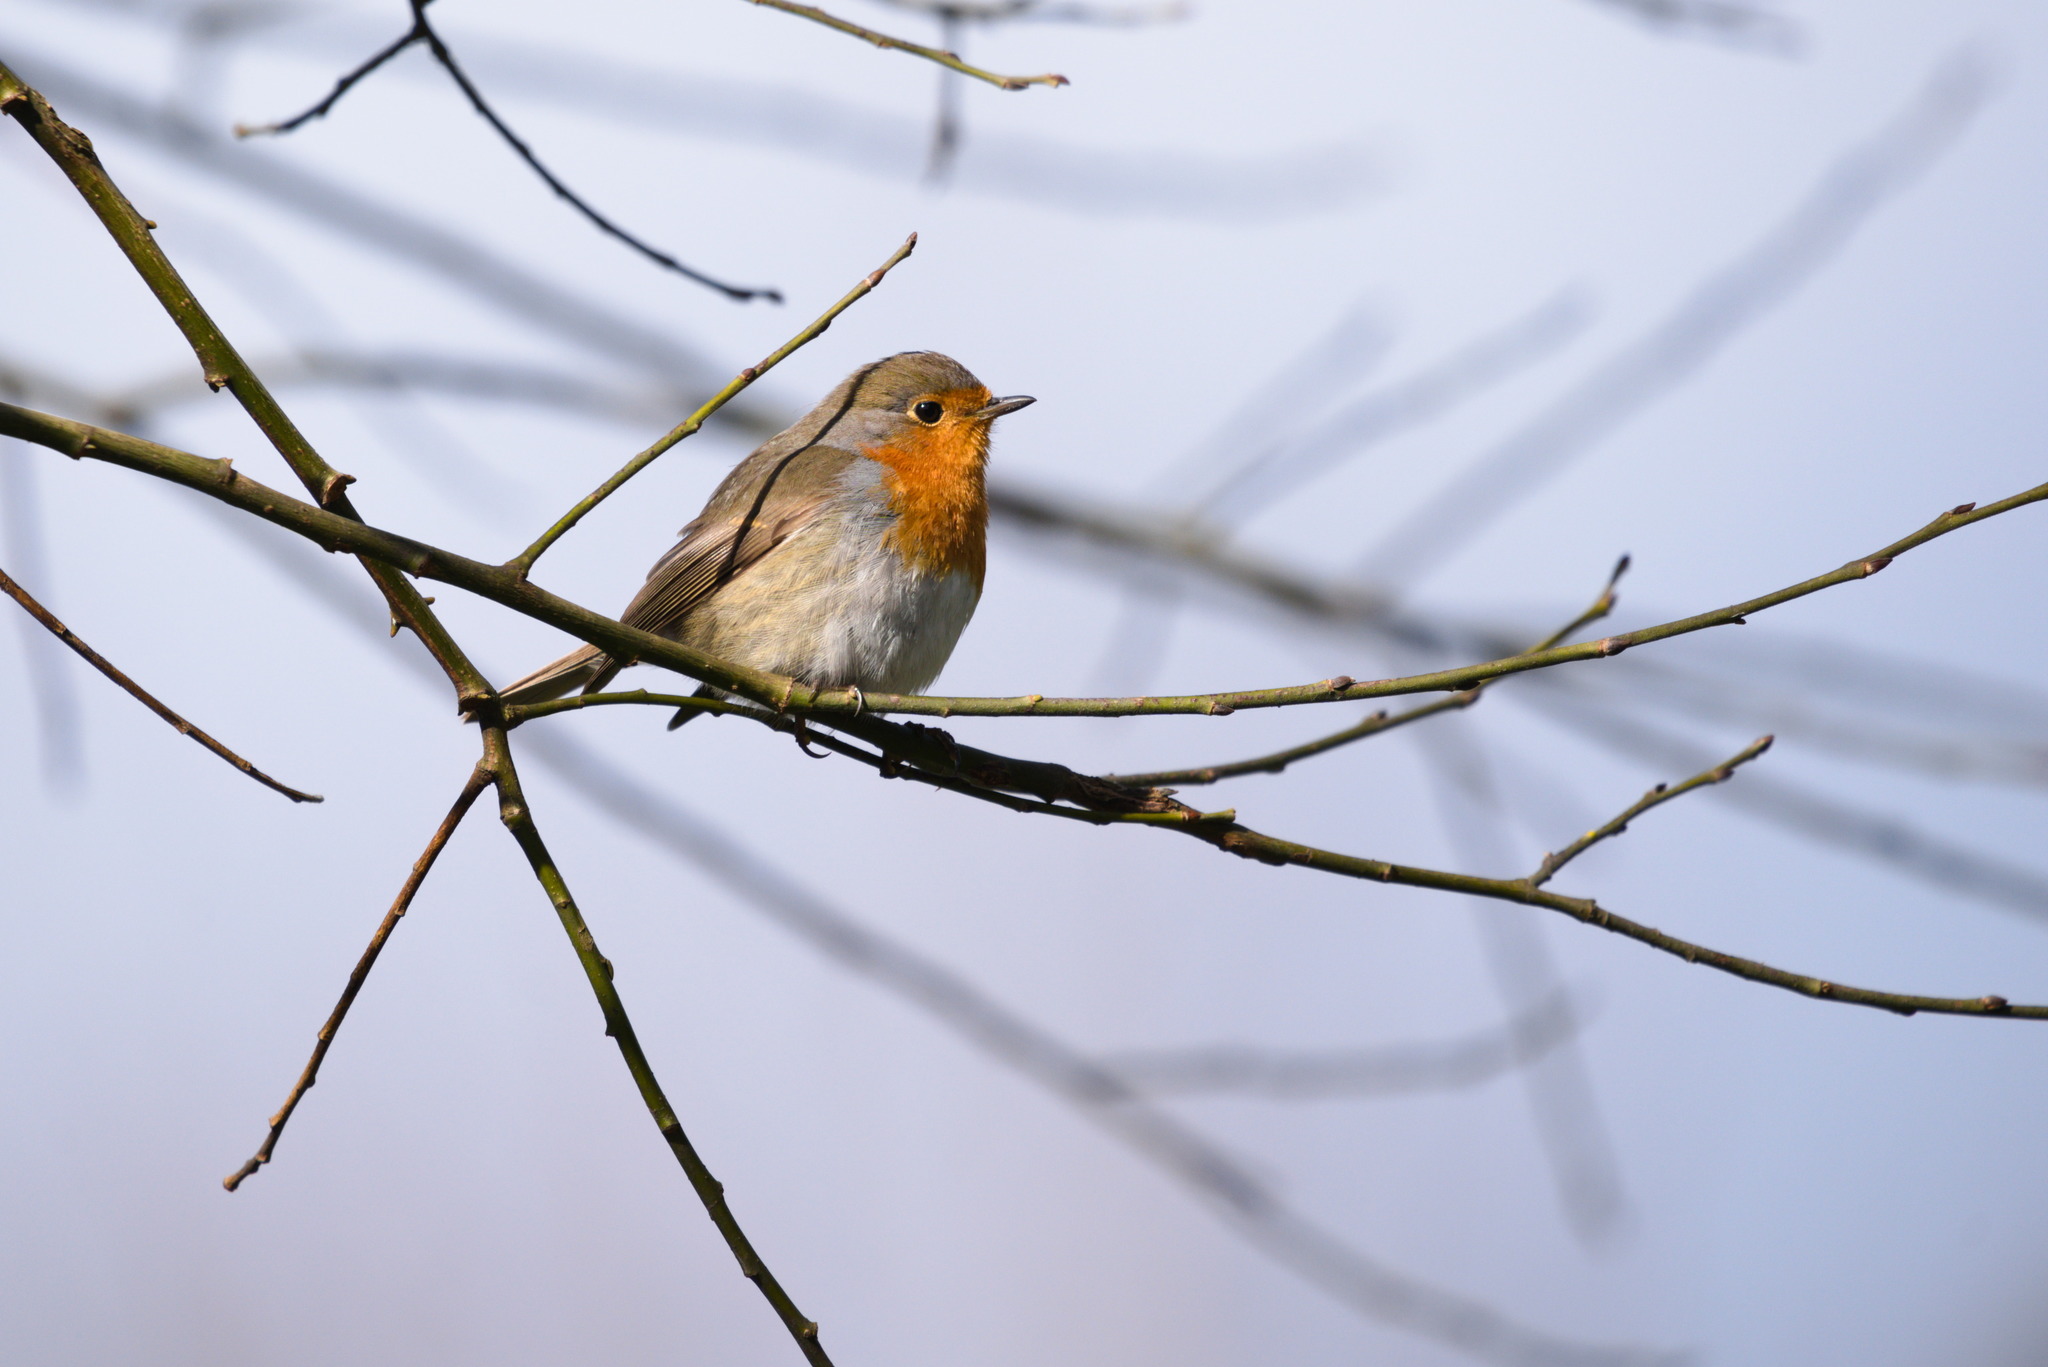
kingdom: Animalia
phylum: Chordata
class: Aves
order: Passeriformes
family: Muscicapidae
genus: Erithacus
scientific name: Erithacus rubecula
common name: European robin
